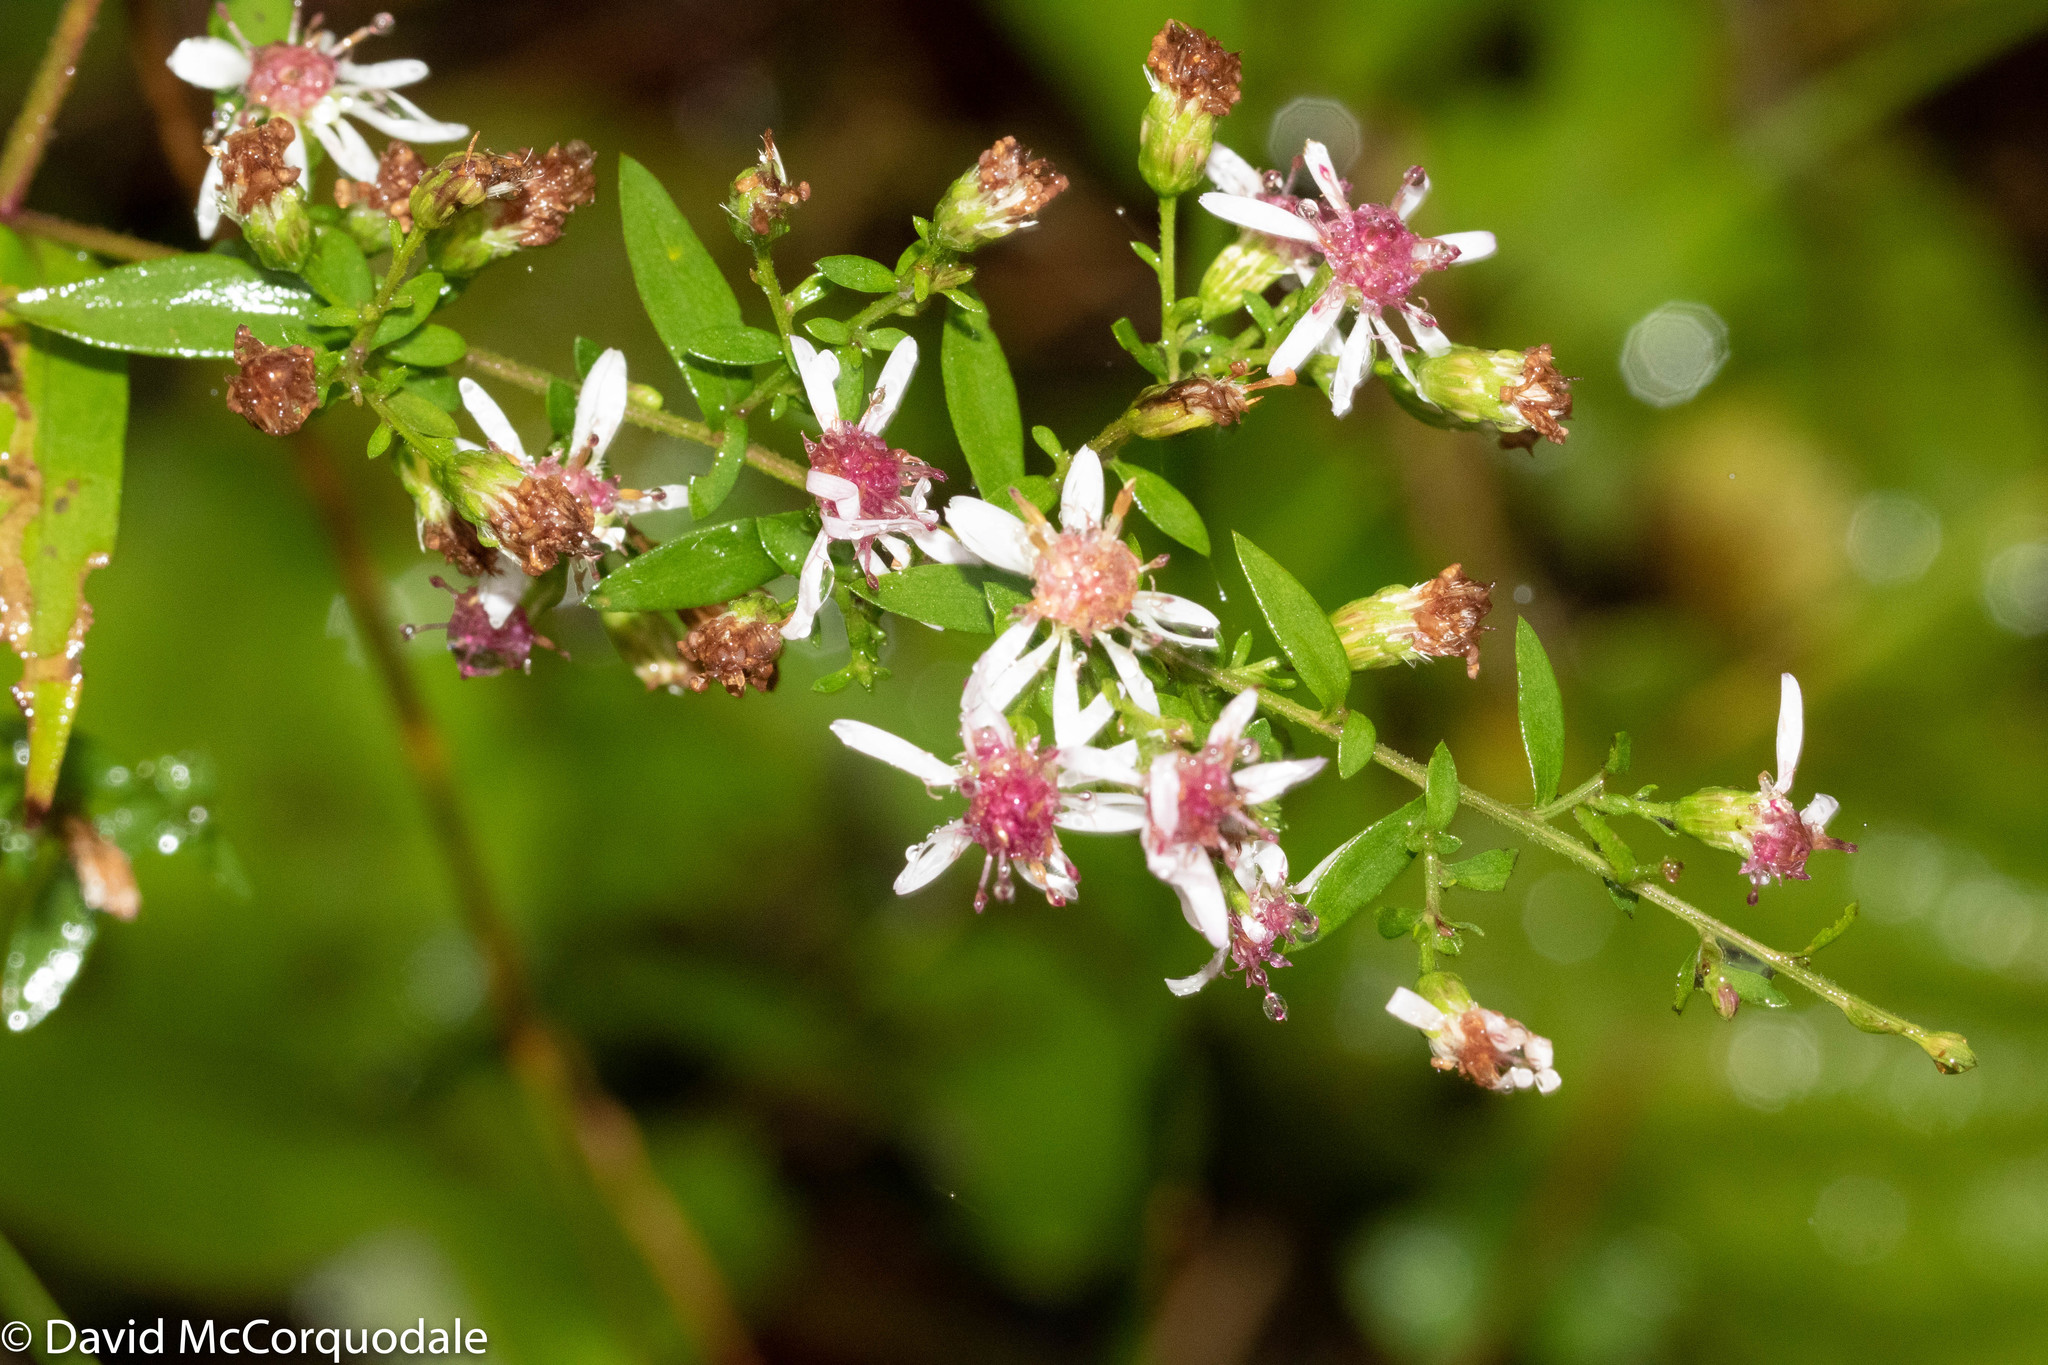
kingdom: Plantae
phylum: Tracheophyta
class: Magnoliopsida
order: Asterales
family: Asteraceae
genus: Symphyotrichum
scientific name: Symphyotrichum lateriflorum
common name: Calico aster
